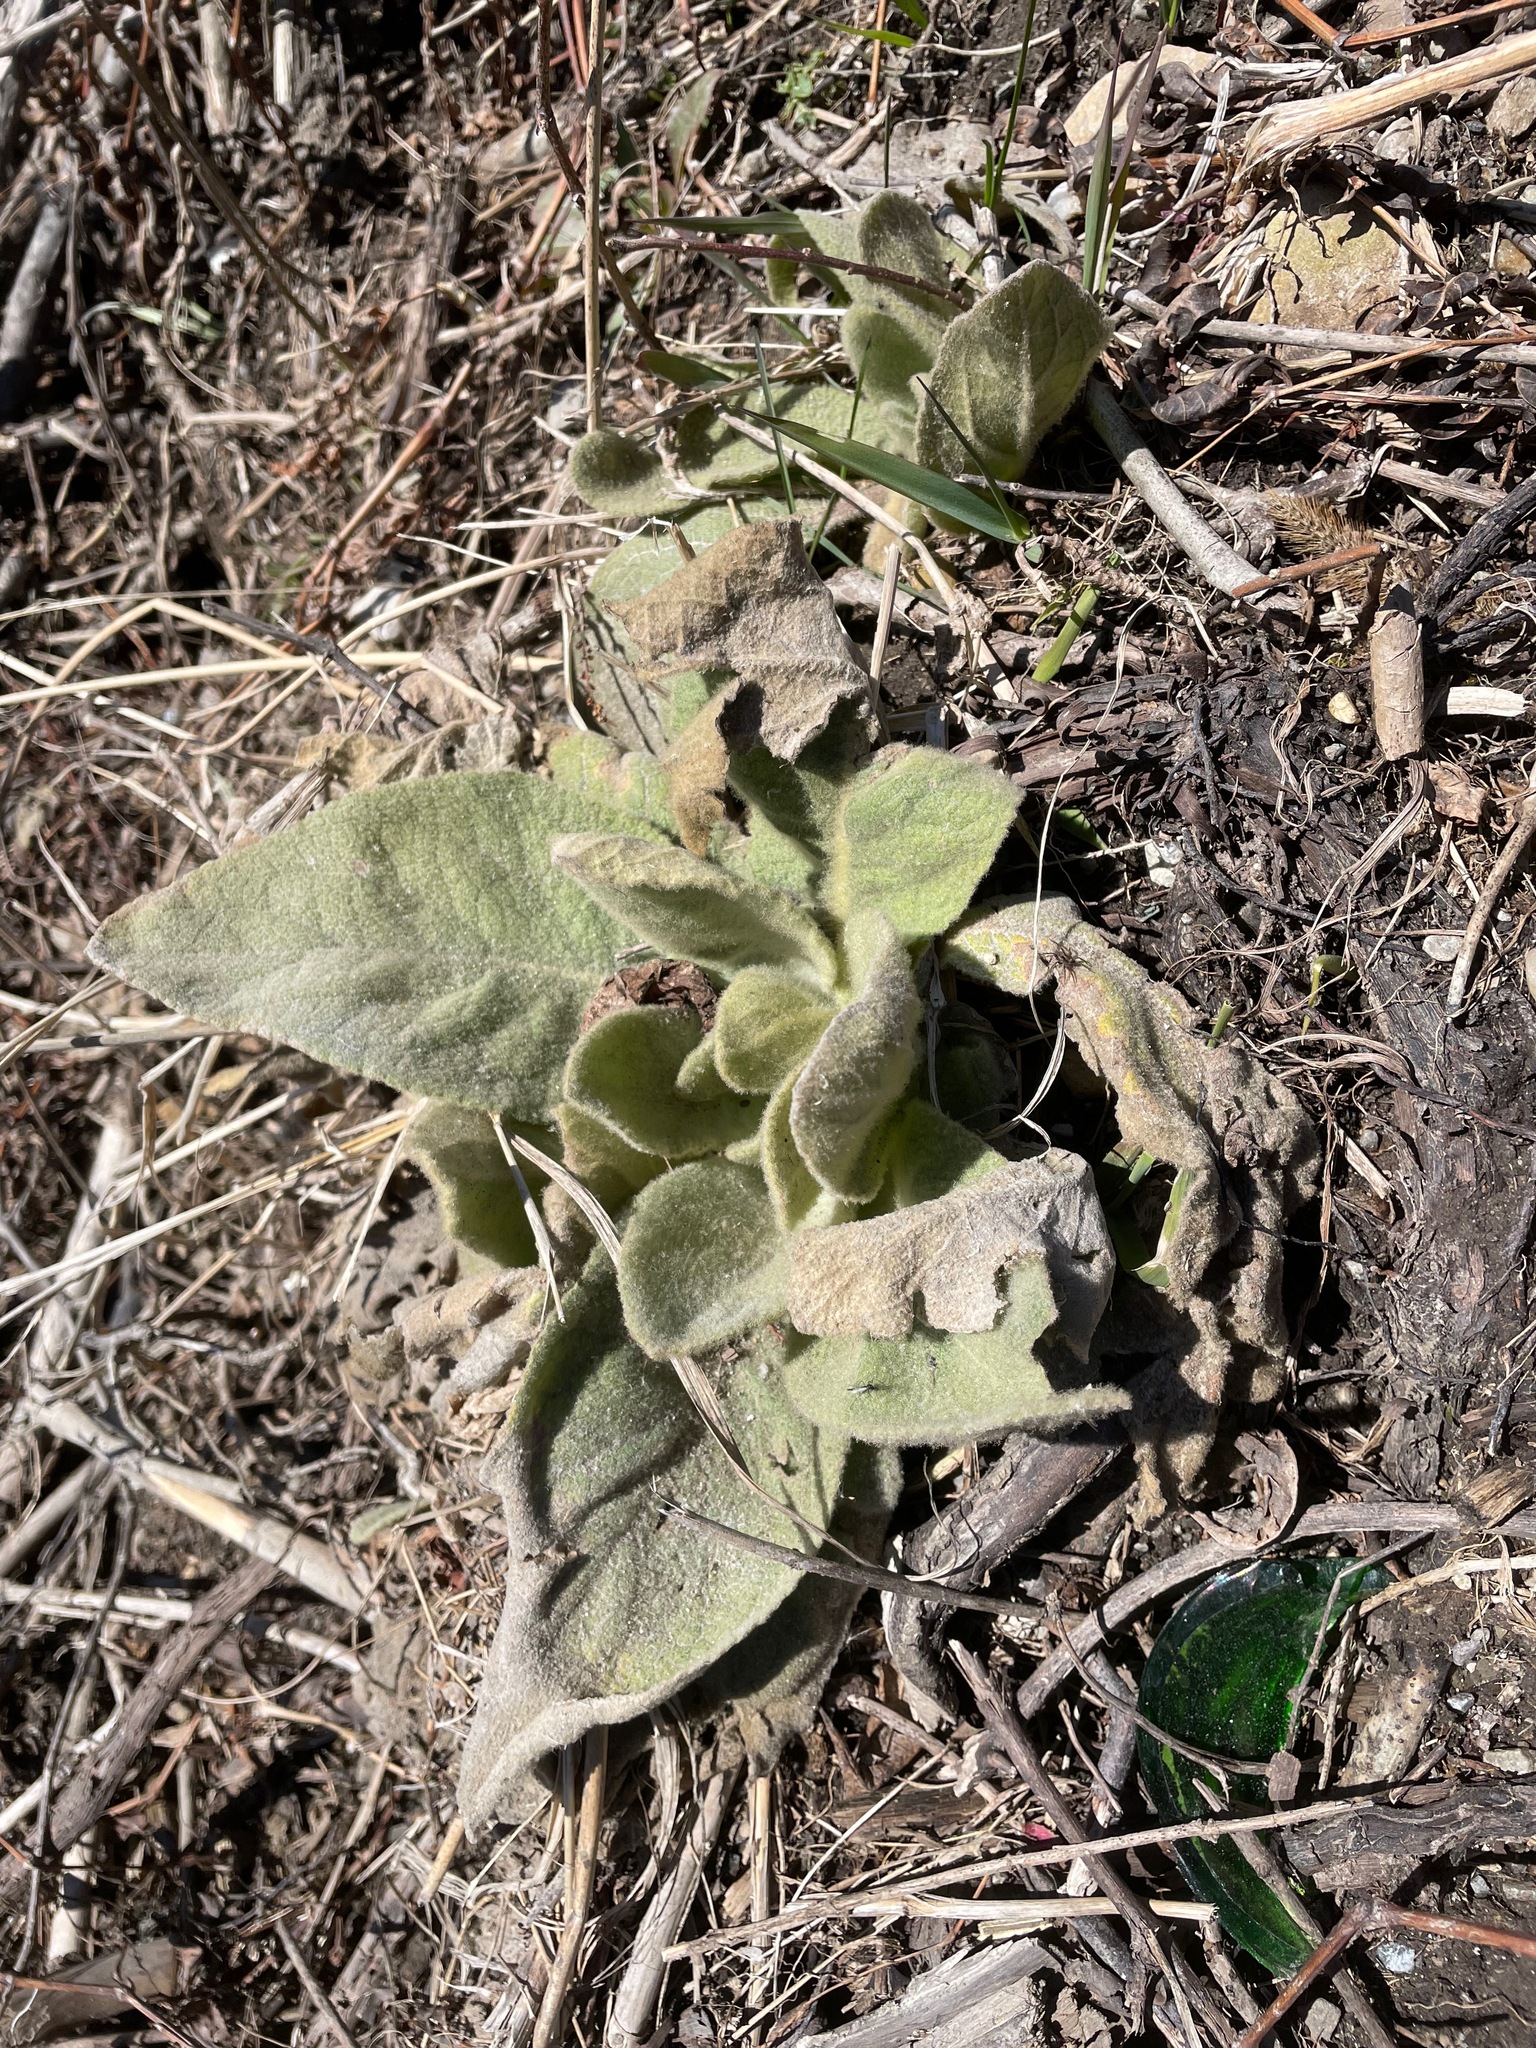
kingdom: Plantae
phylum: Tracheophyta
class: Magnoliopsida
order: Lamiales
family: Scrophulariaceae
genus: Verbascum
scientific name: Verbascum thapsus
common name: Common mullein
